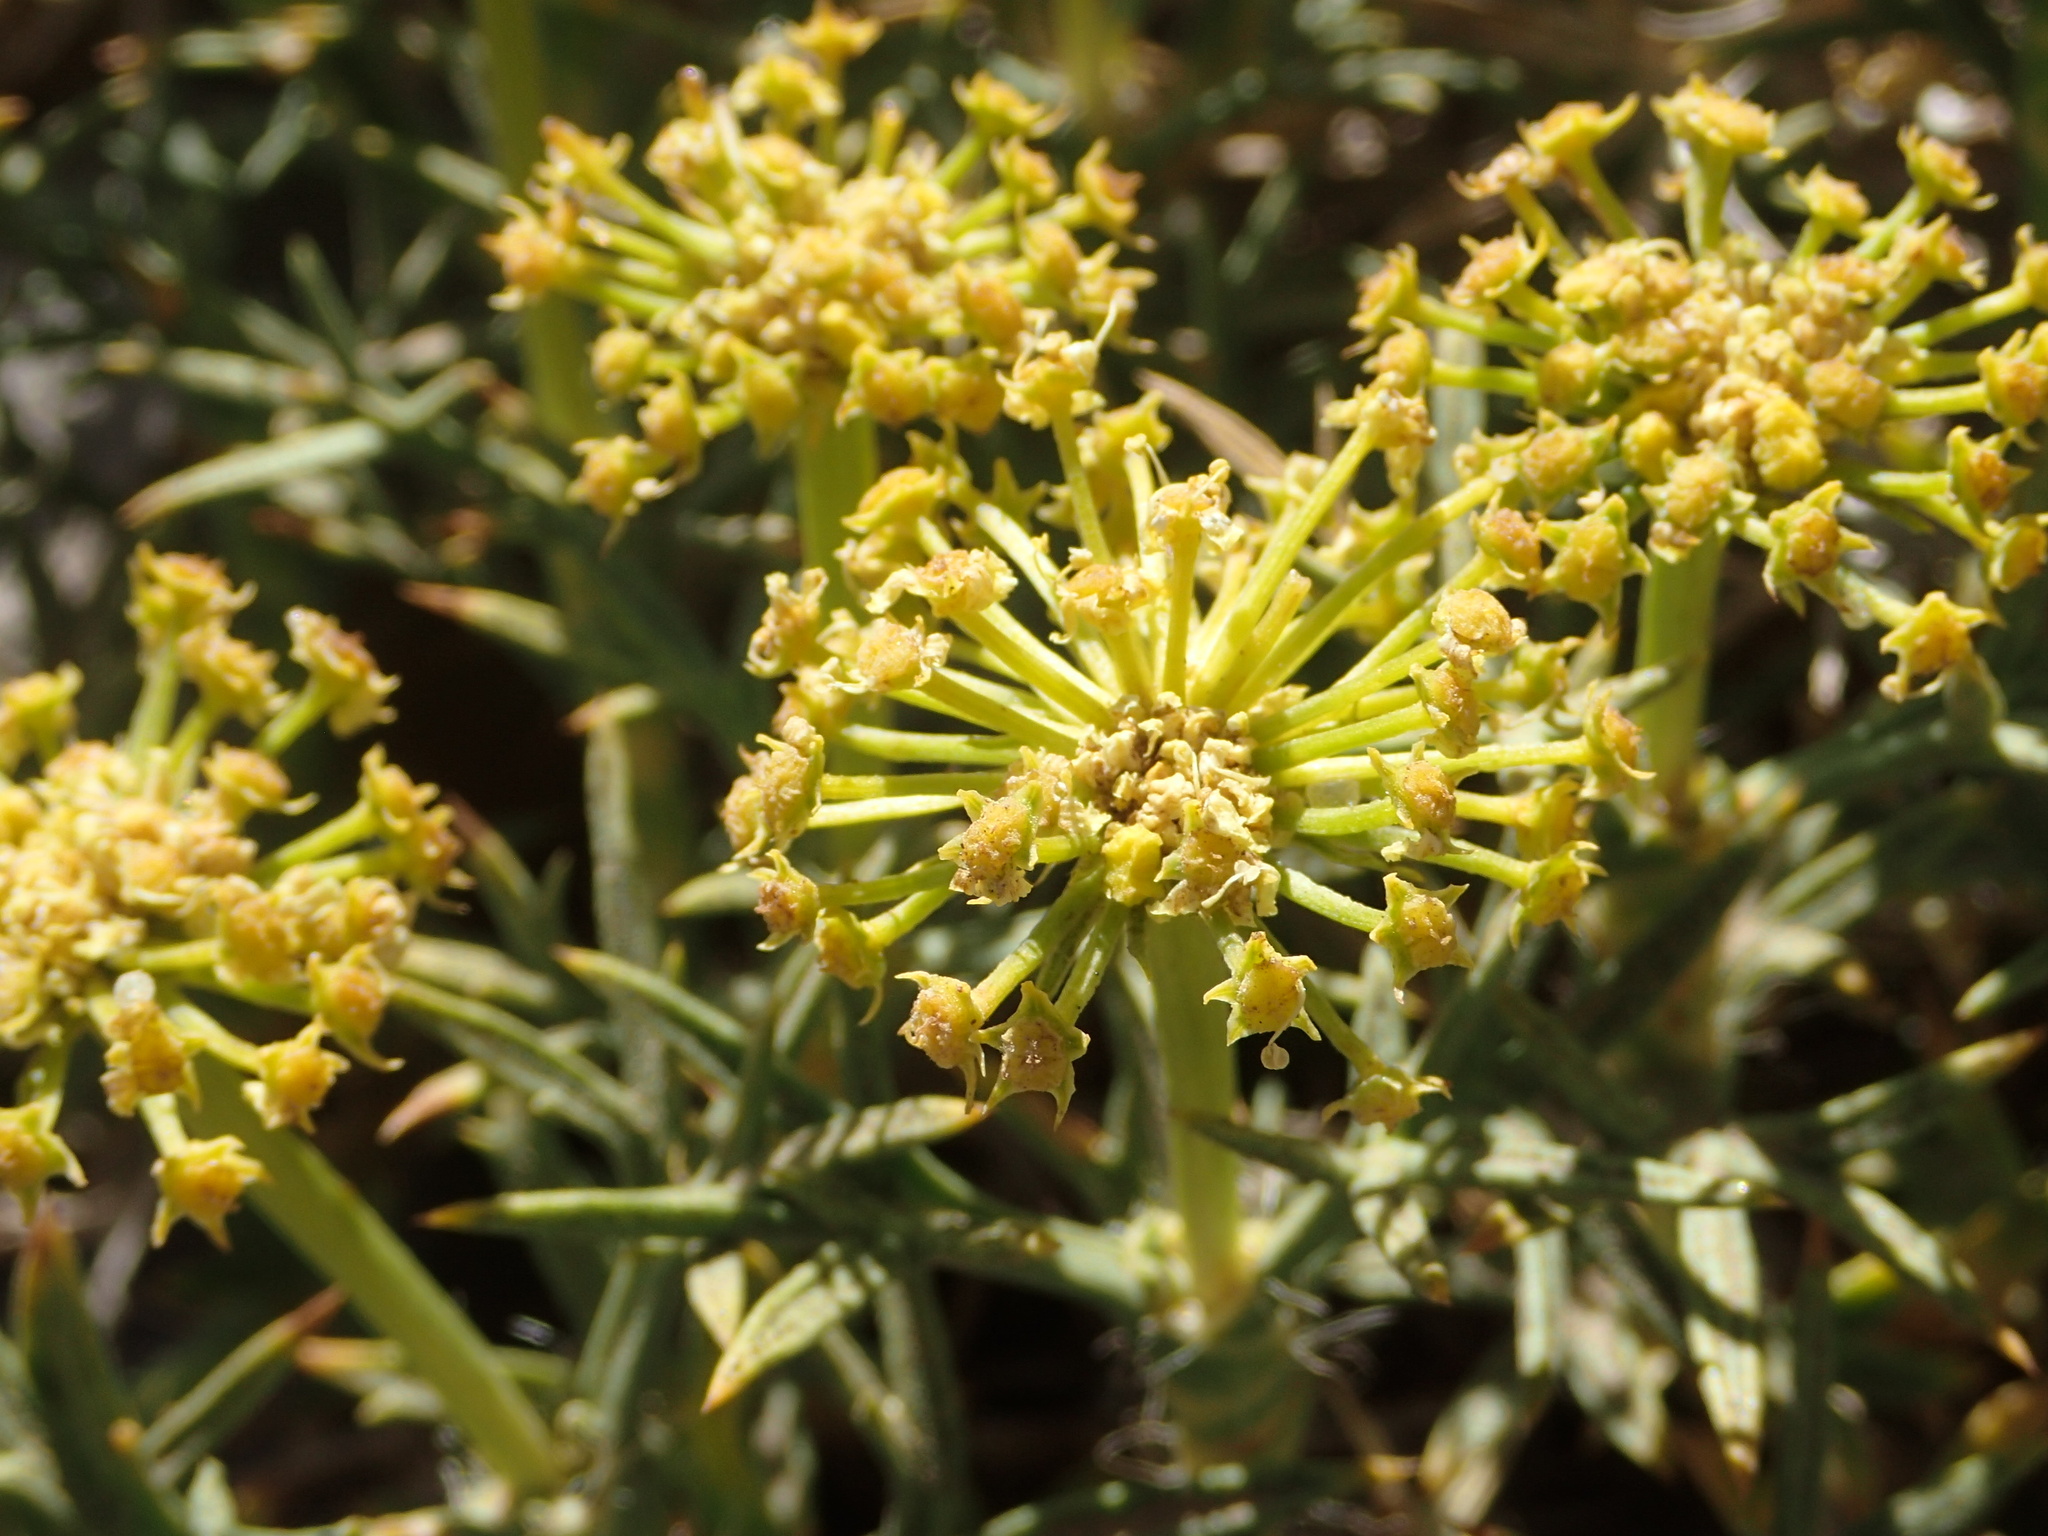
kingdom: Plantae
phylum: Tracheophyta
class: Magnoliopsida
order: Apiales
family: Apiaceae
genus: Azorella
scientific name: Azorella prolifera
